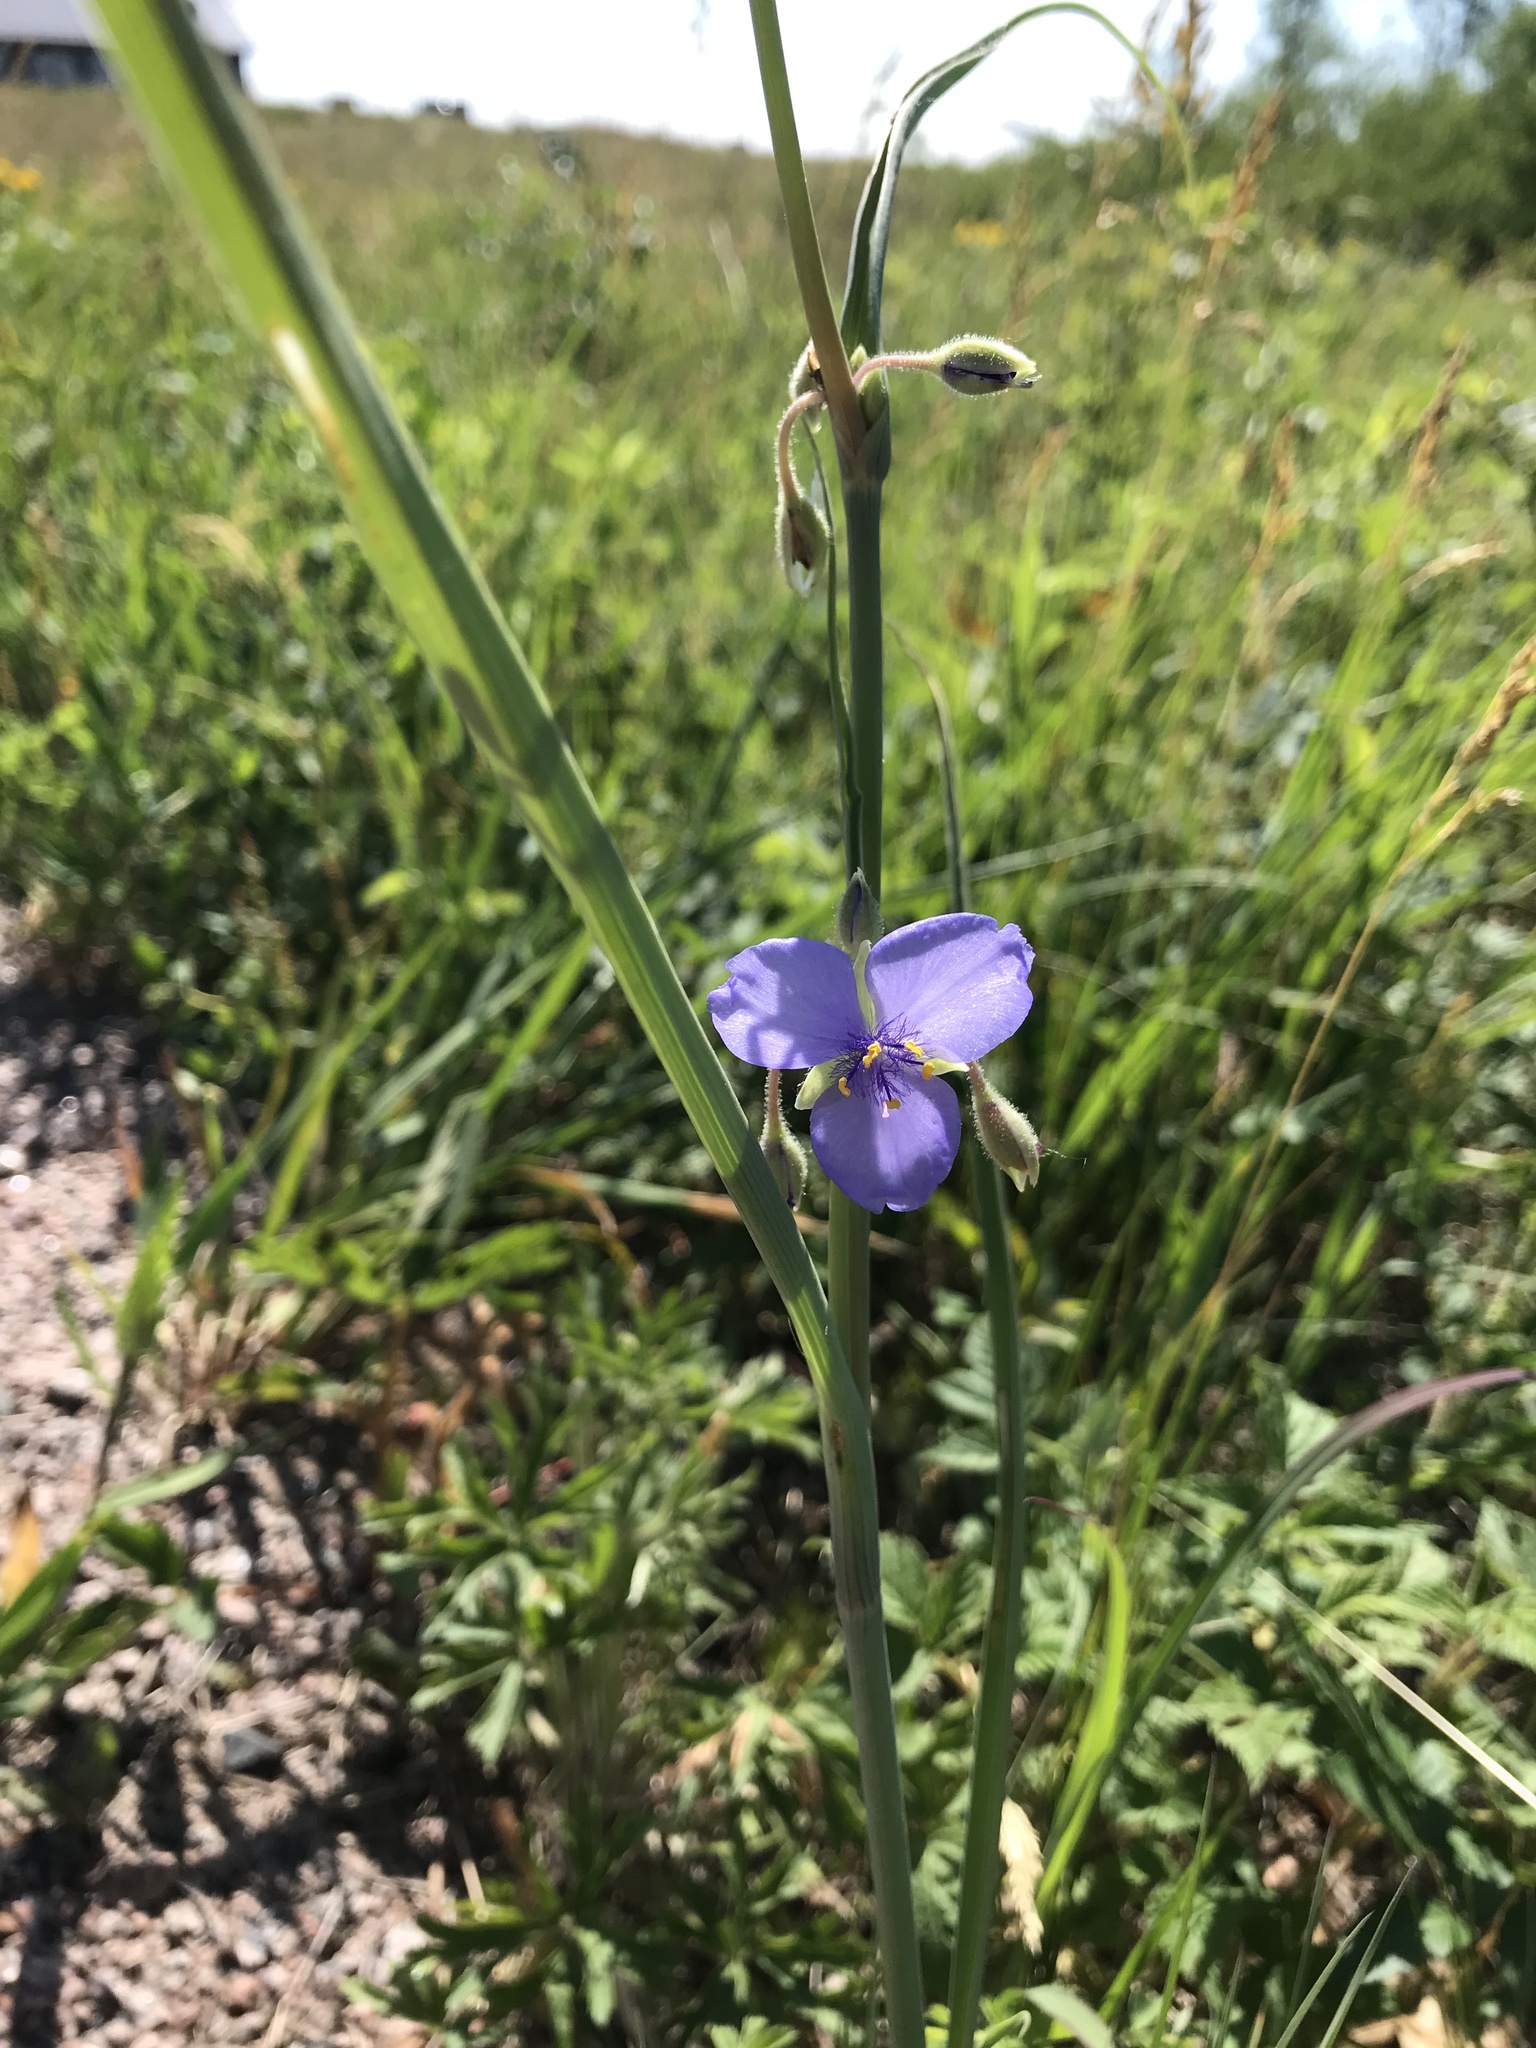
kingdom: Plantae
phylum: Tracheophyta
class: Liliopsida
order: Commelinales
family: Commelinaceae
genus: Tradescantia
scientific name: Tradescantia occidentalis
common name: Prairie spiderwort
